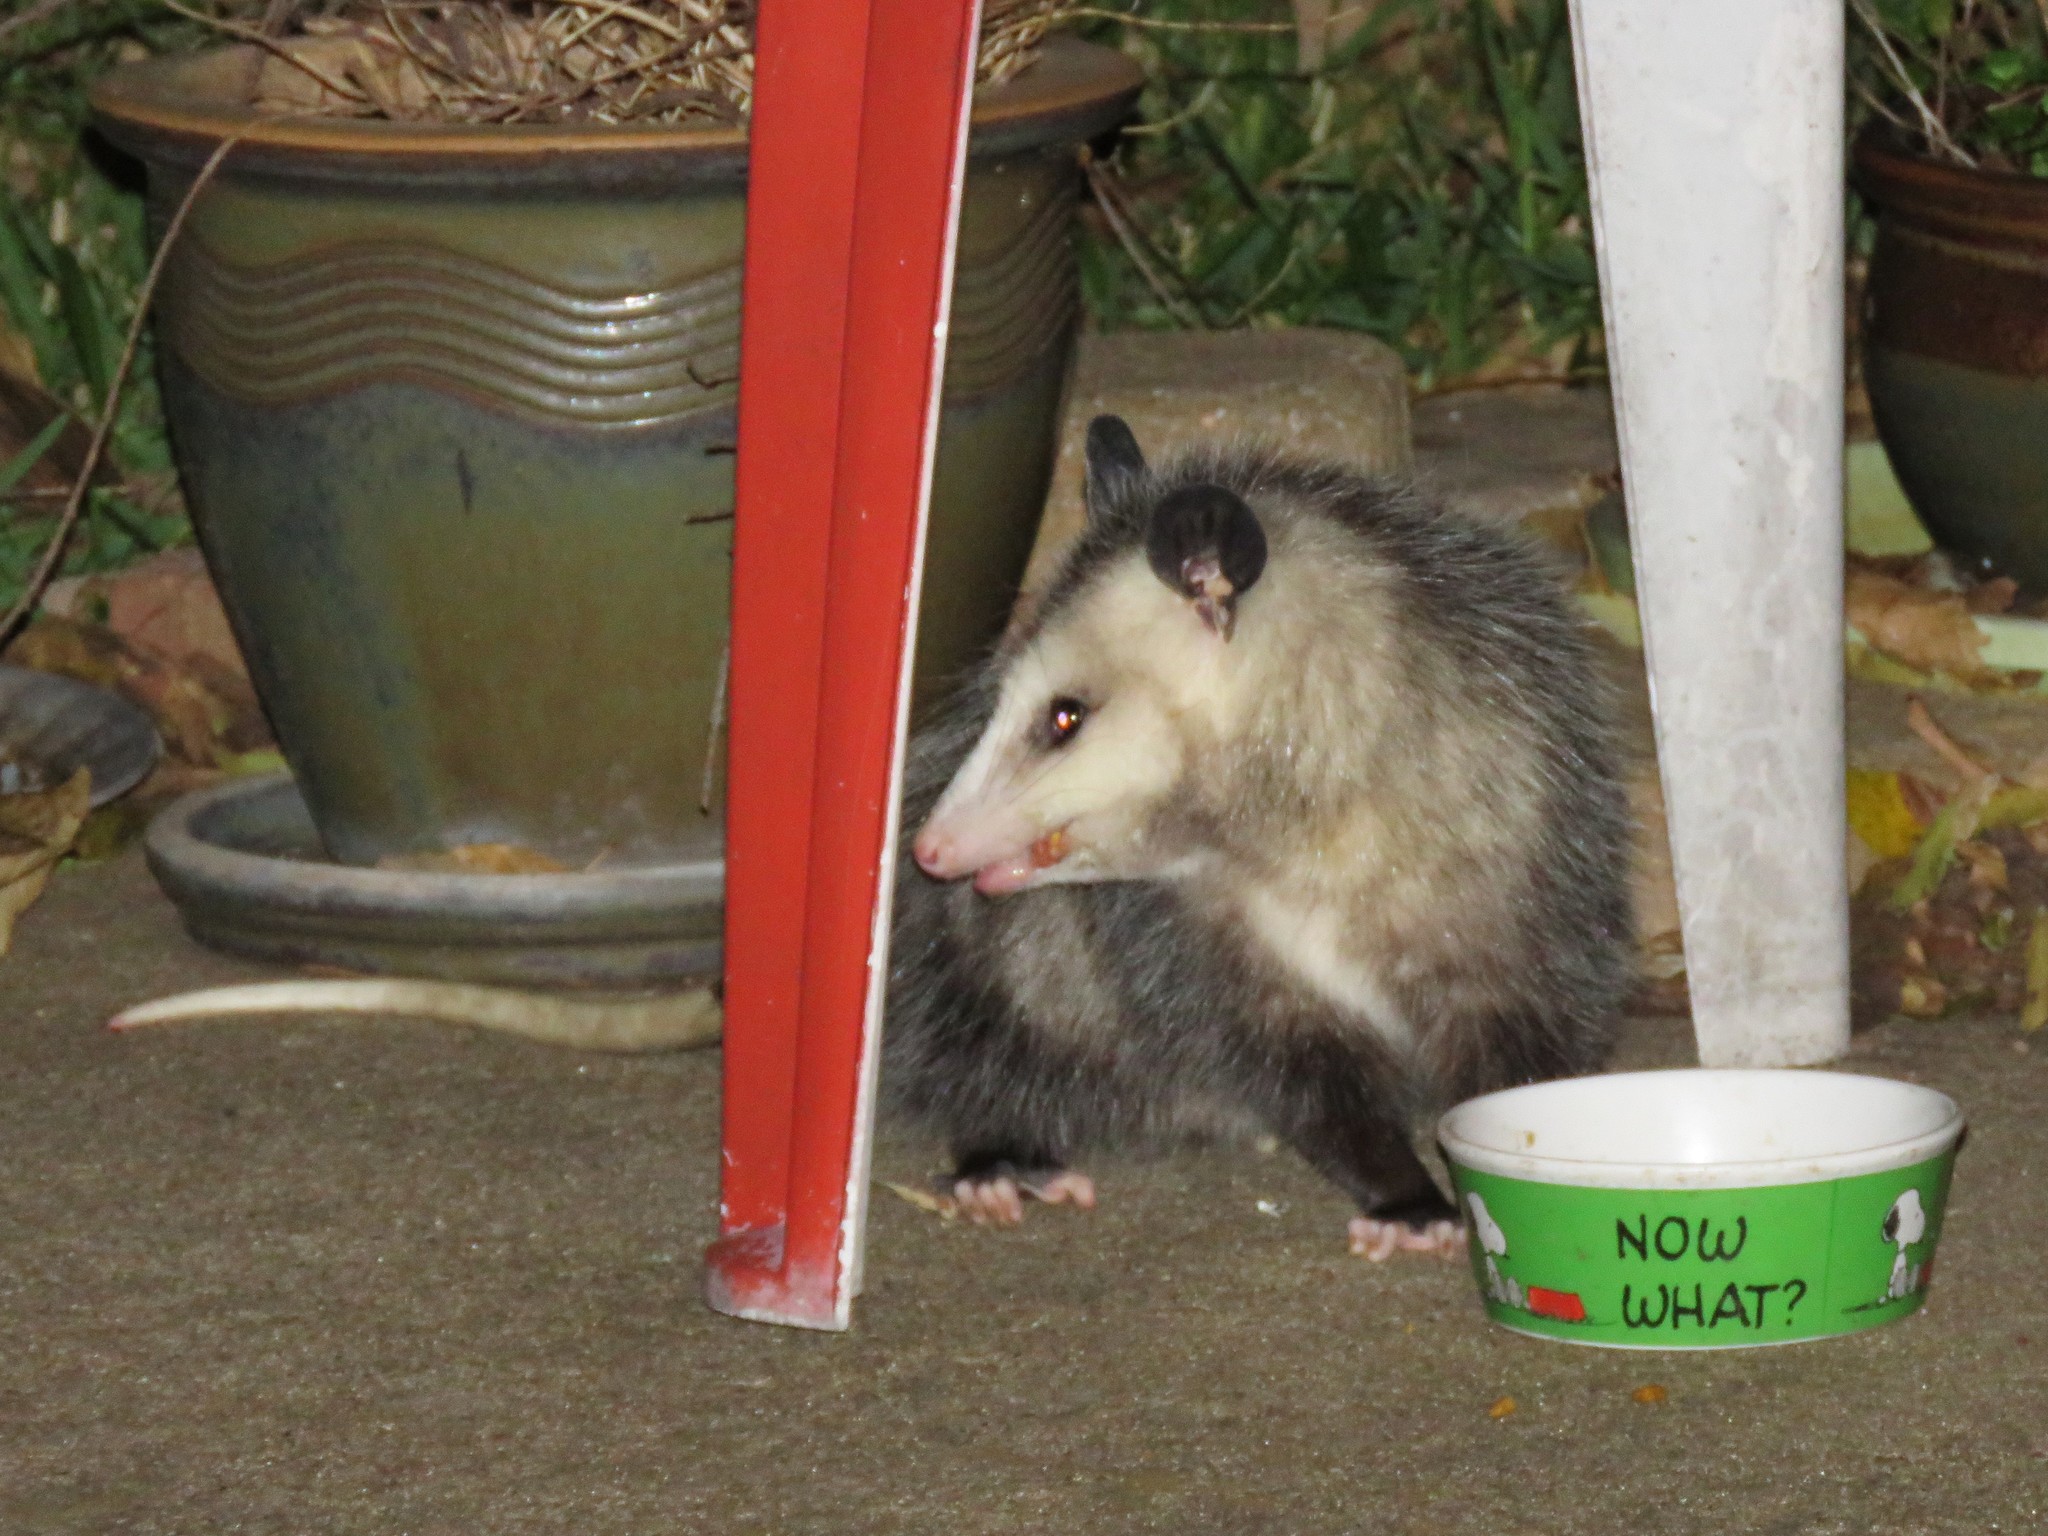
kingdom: Animalia
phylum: Chordata
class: Mammalia
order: Didelphimorphia
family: Didelphidae
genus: Didelphis
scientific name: Didelphis virginiana
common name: Virginia opossum
